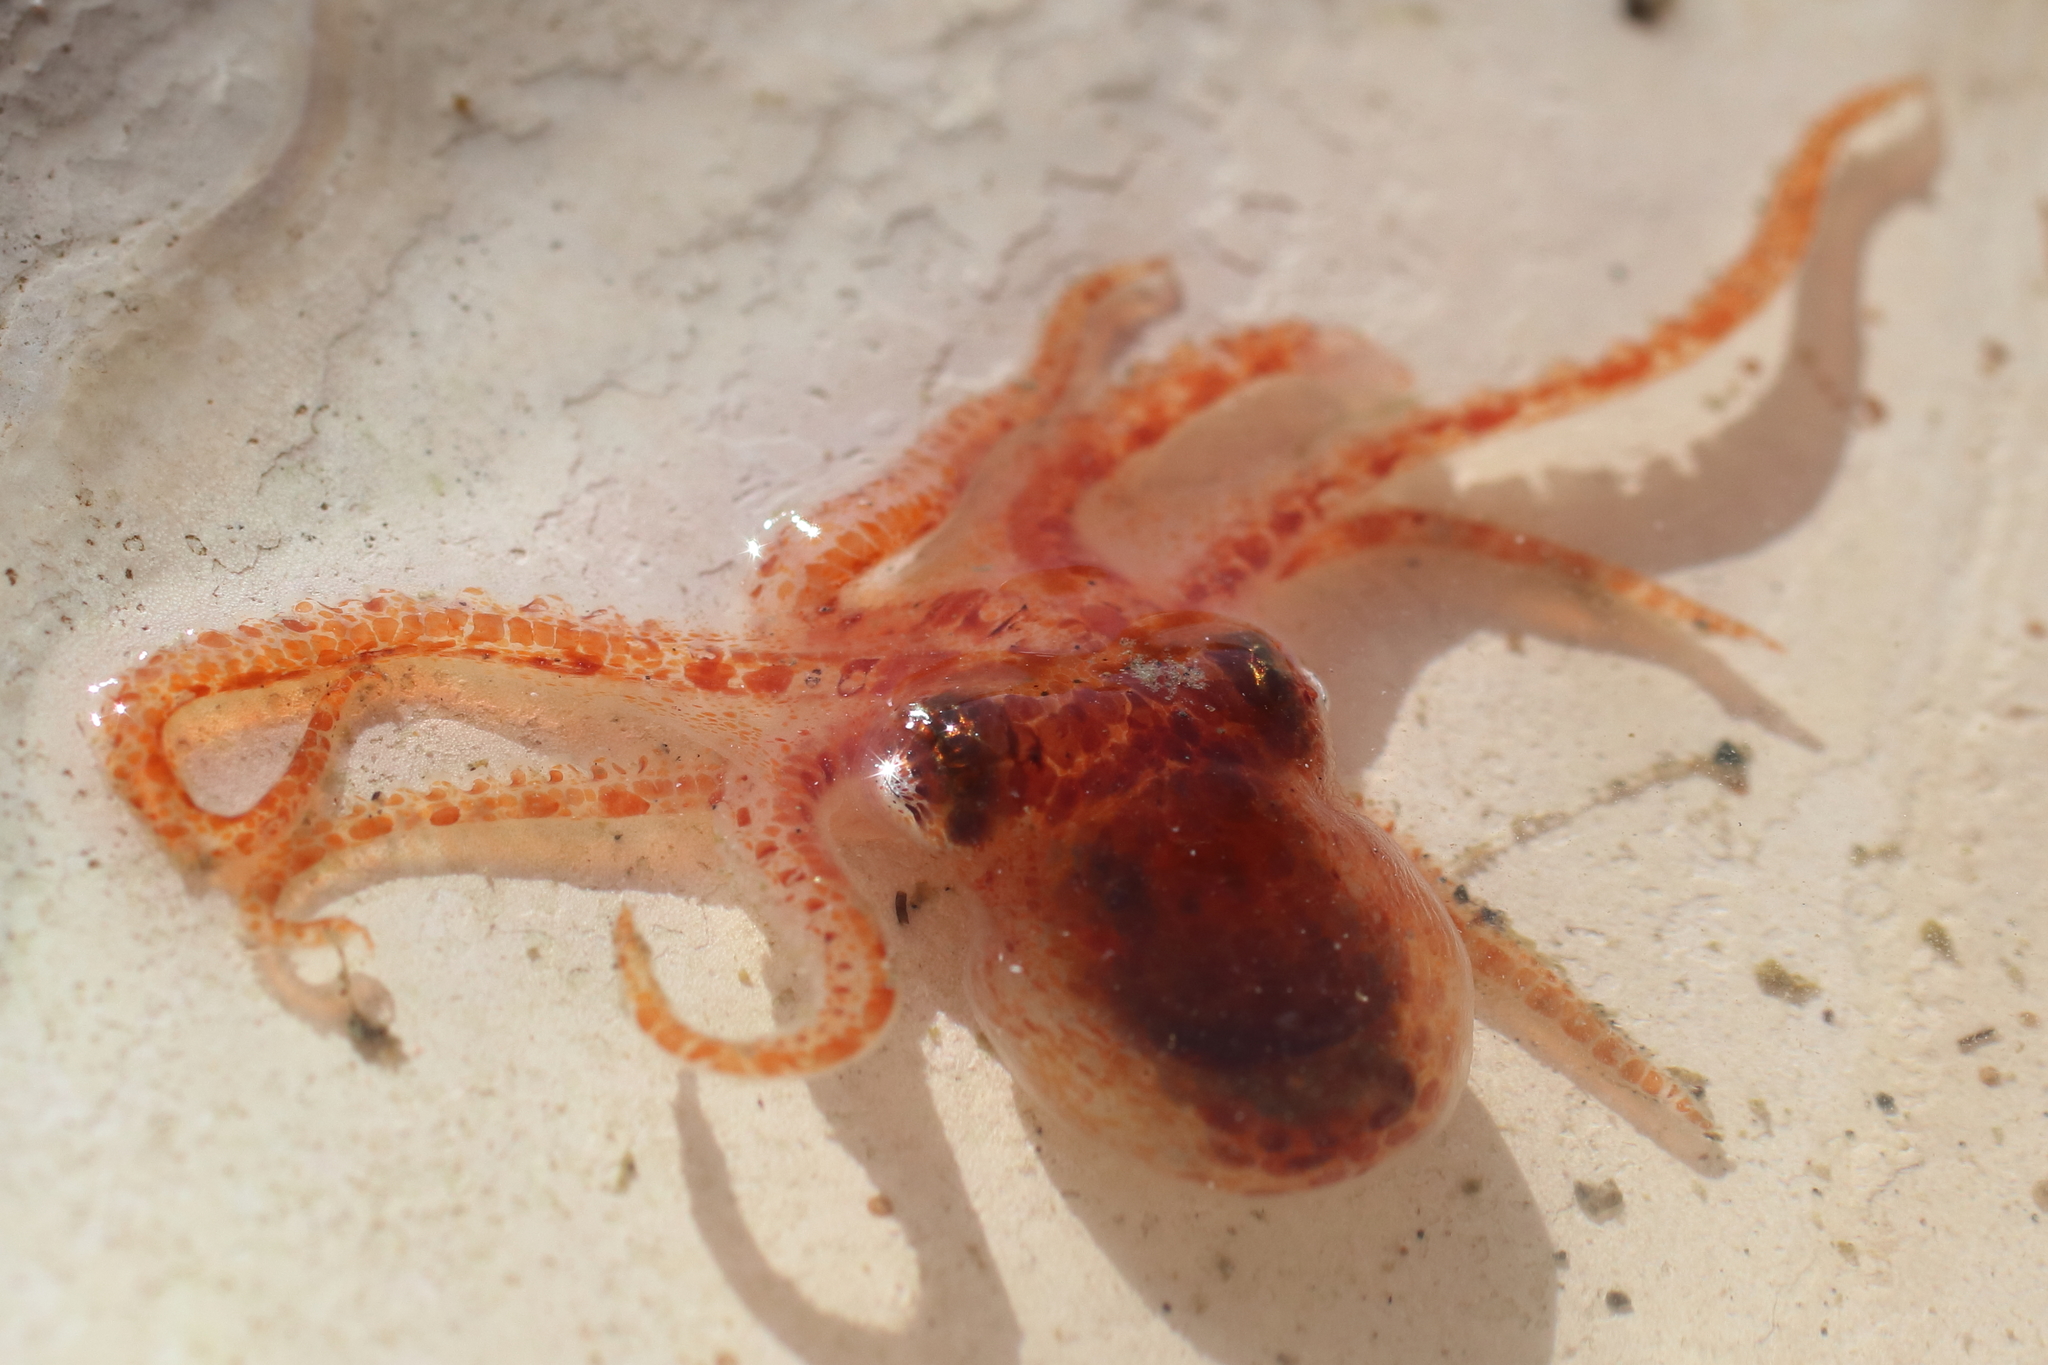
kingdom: Animalia
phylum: Mollusca
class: Cephalopoda
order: Octopoda
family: Enteroctopodidae
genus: Enteroctopus
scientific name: Enteroctopus dofleini
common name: Giant north pacific octopus
